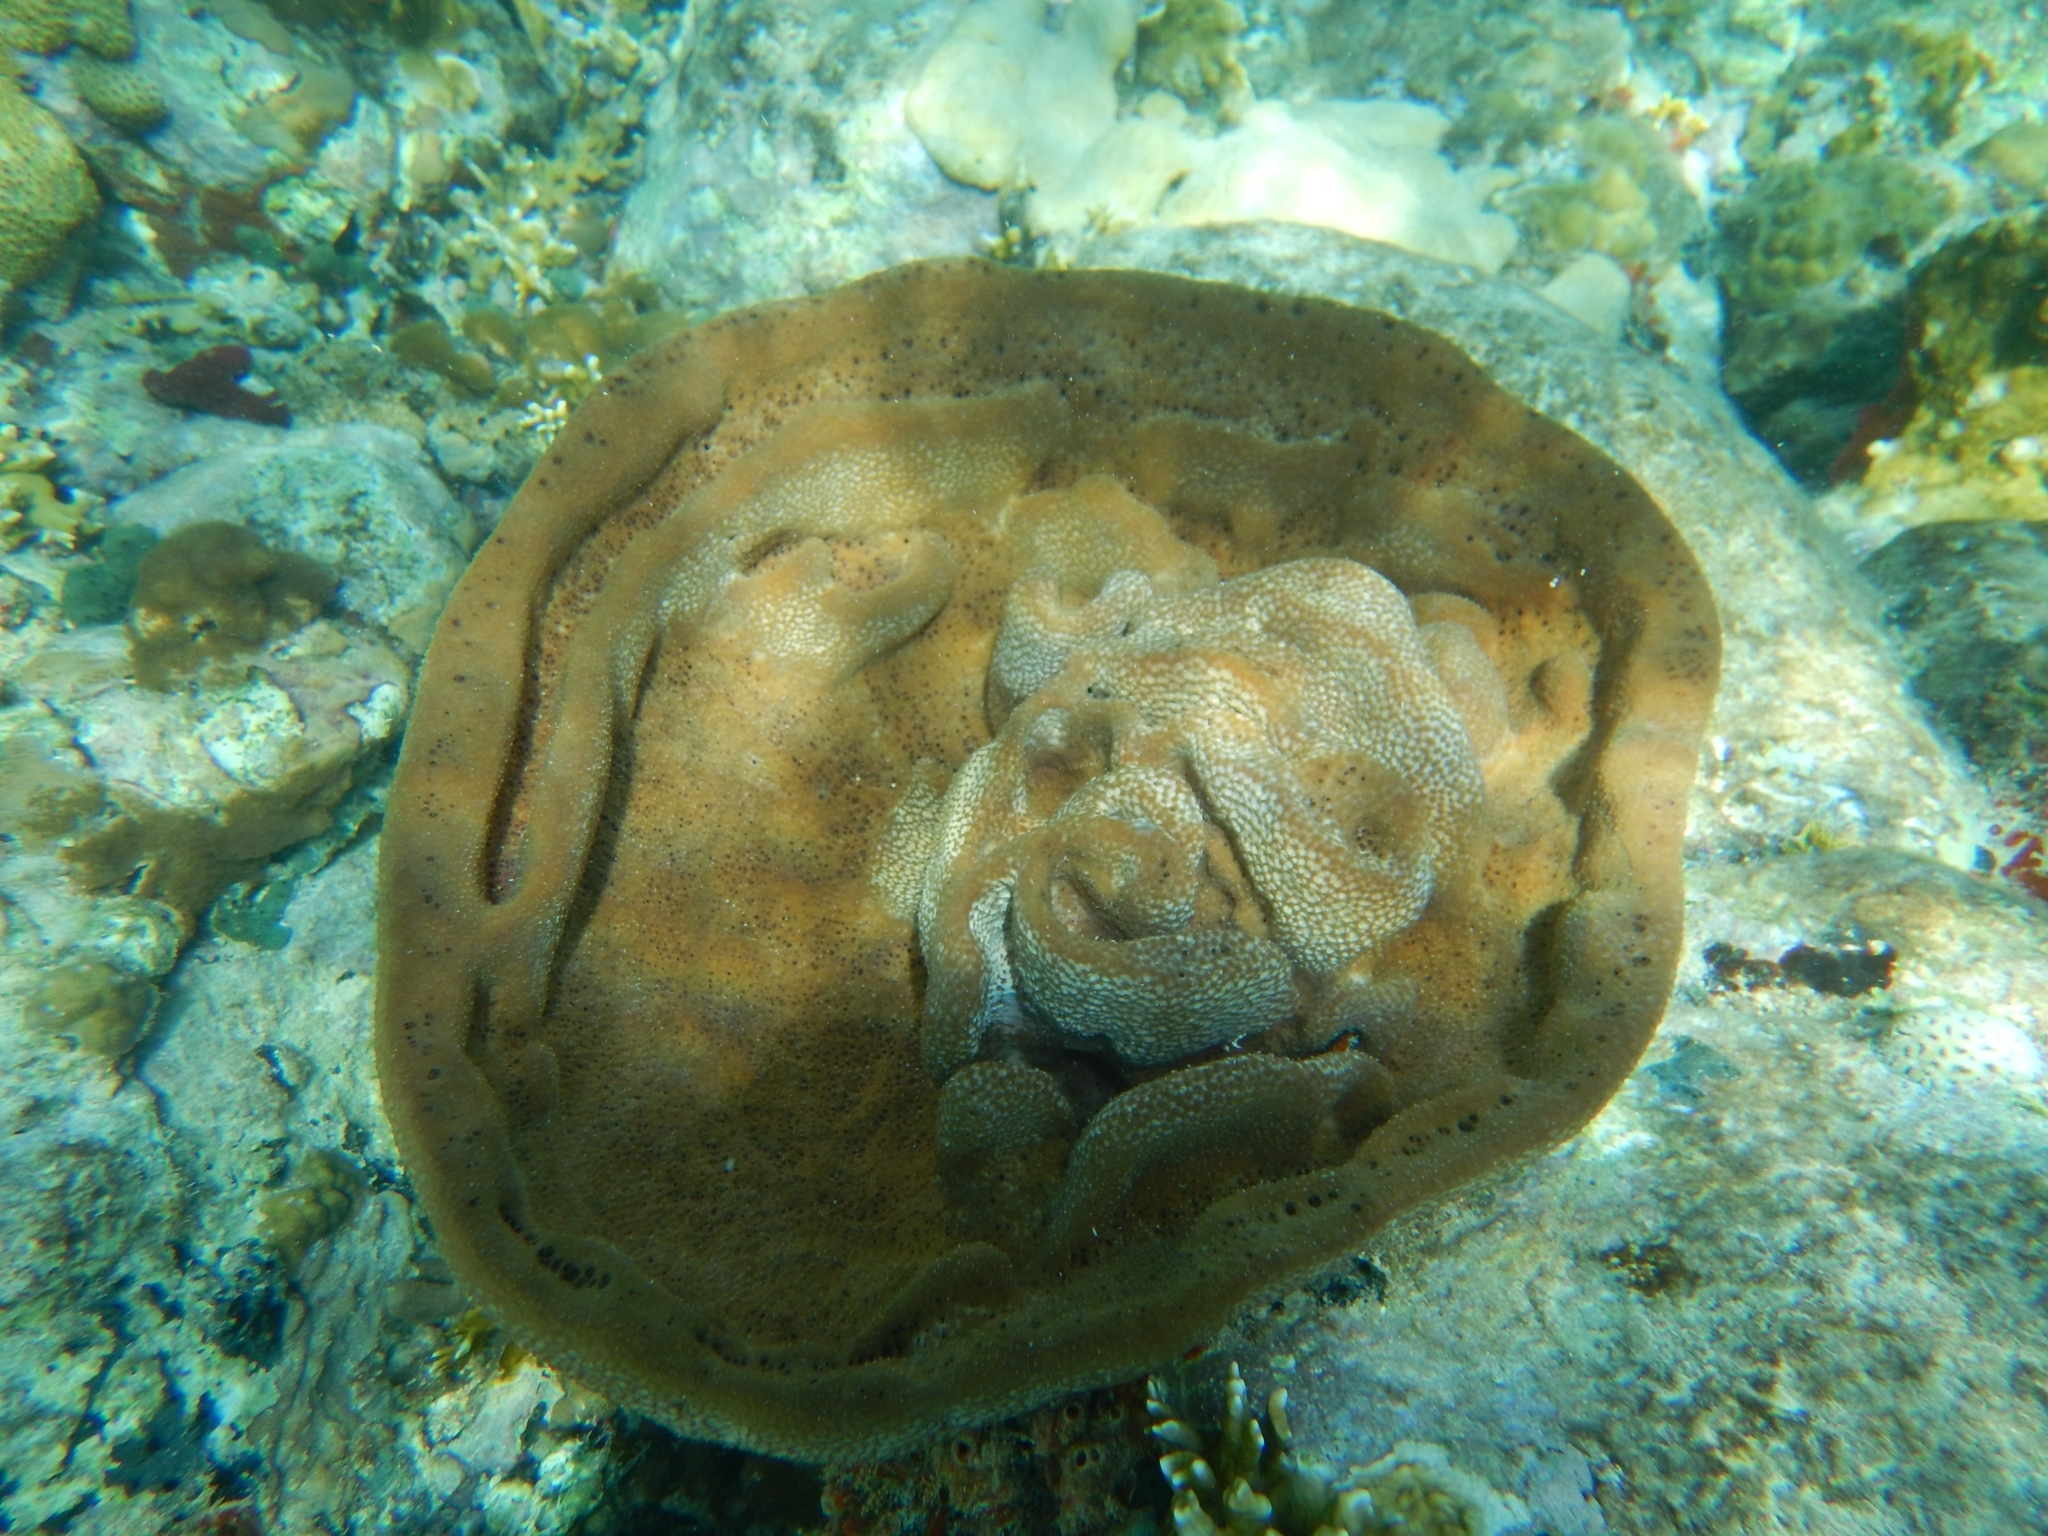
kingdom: Animalia
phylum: Porifera
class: Demospongiae
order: Dictyoceratida
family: Irciniidae
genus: Ircinia
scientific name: Ircinia campana
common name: Vase sponge
